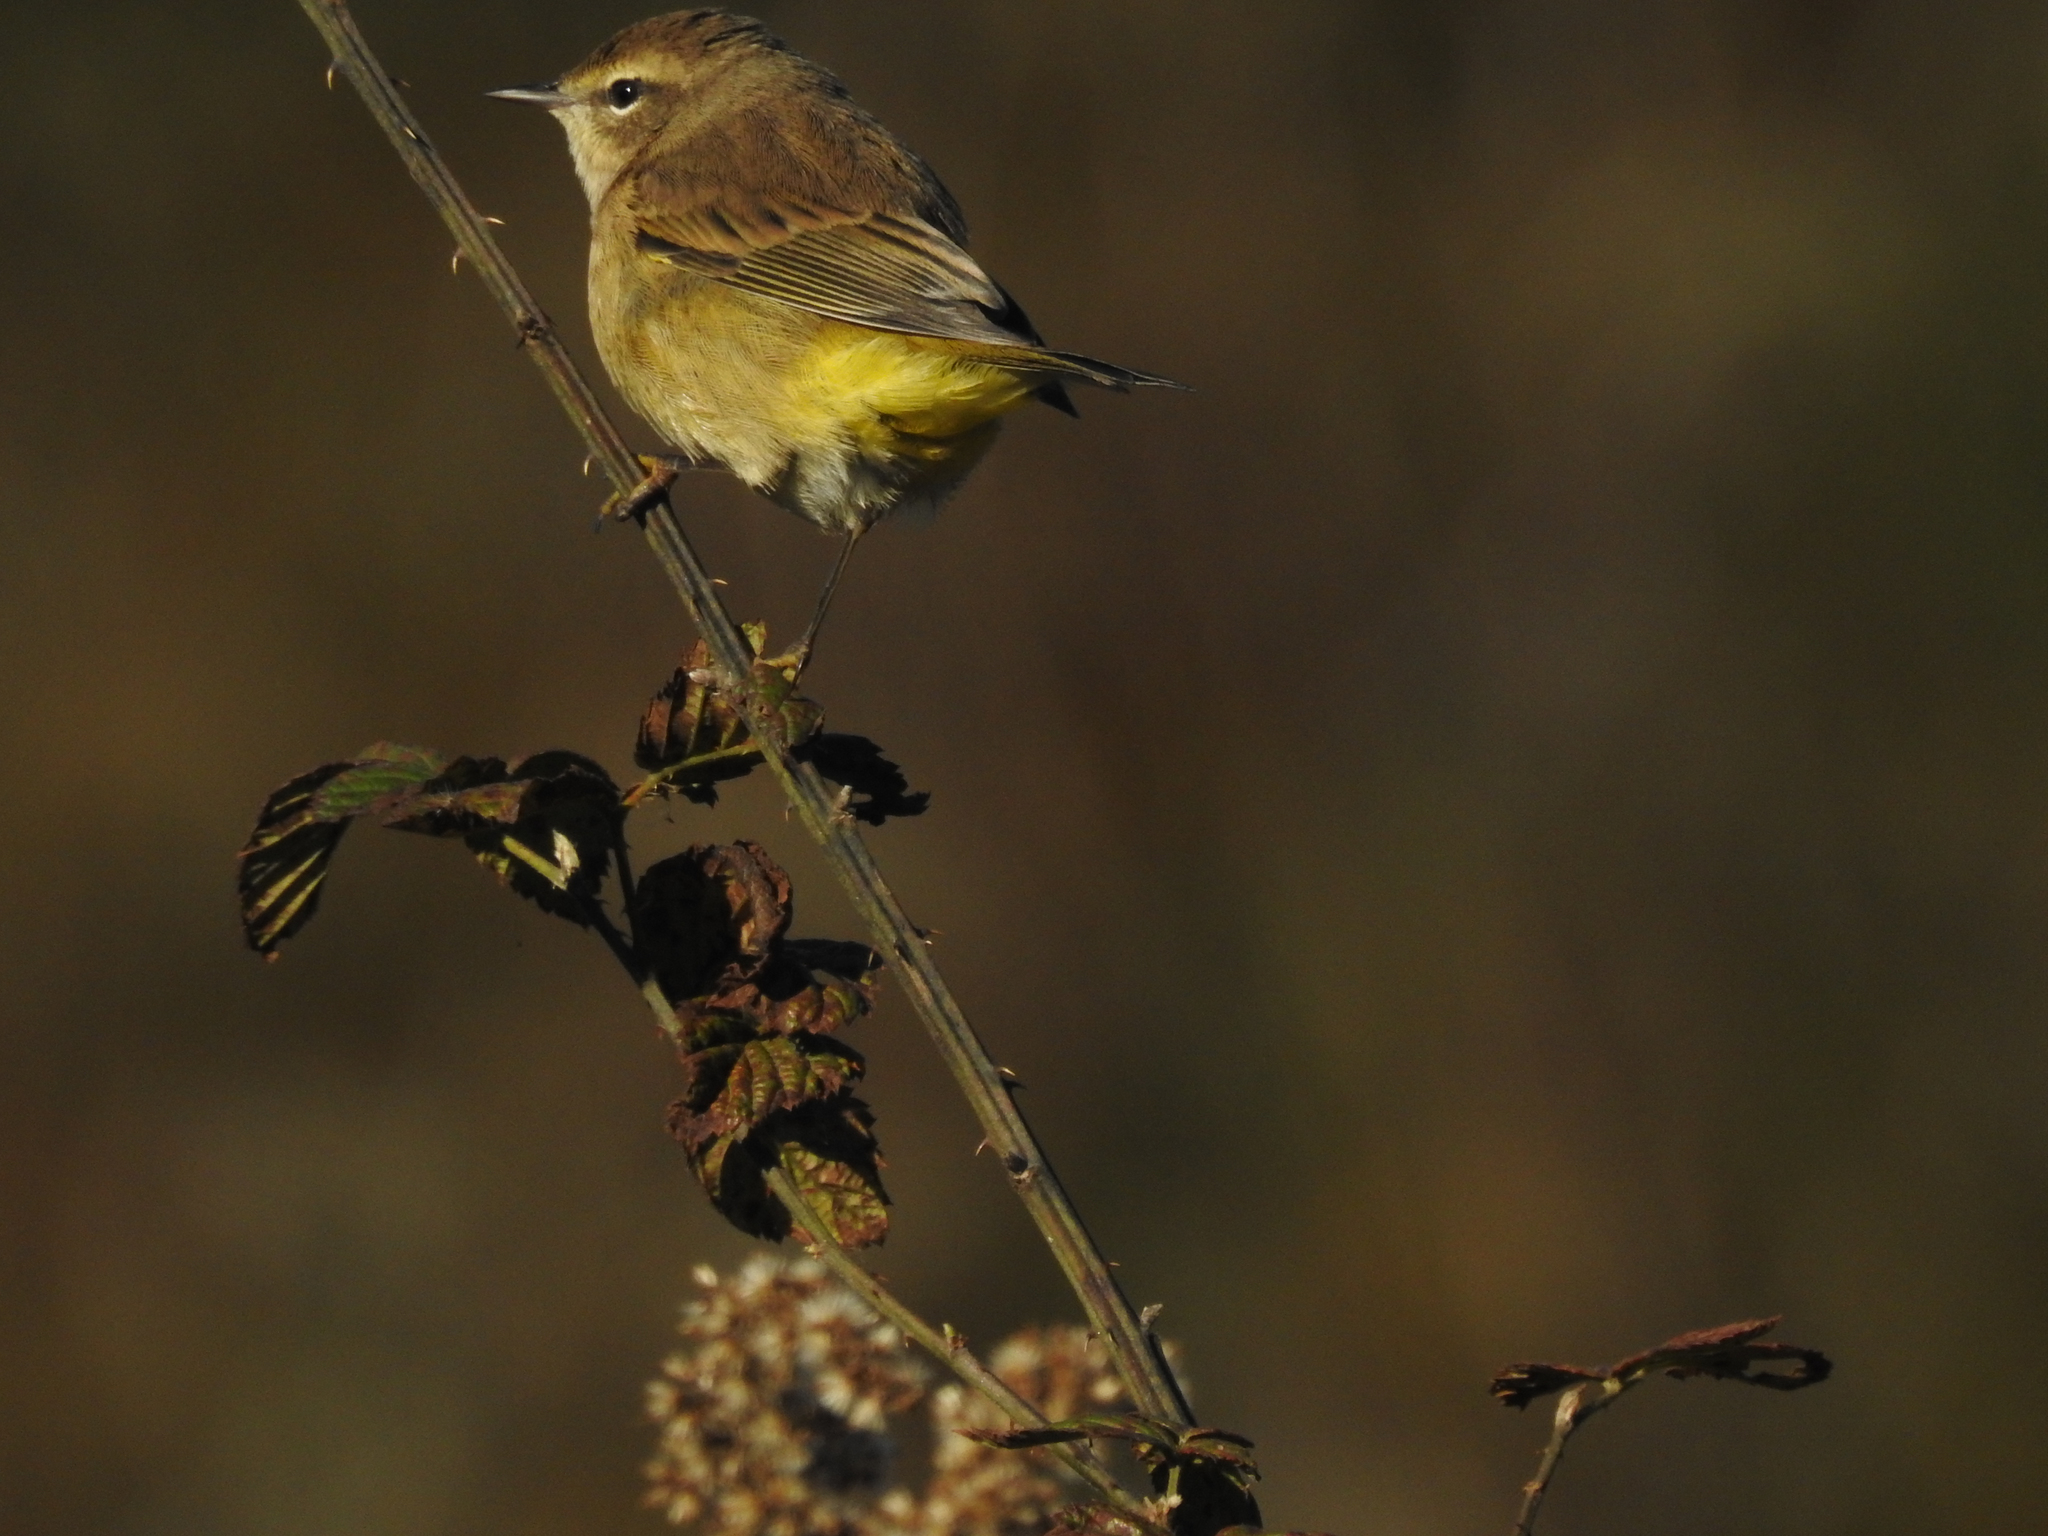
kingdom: Animalia
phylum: Chordata
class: Aves
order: Passeriformes
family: Parulidae
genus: Setophaga
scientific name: Setophaga palmarum
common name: Palm warbler
